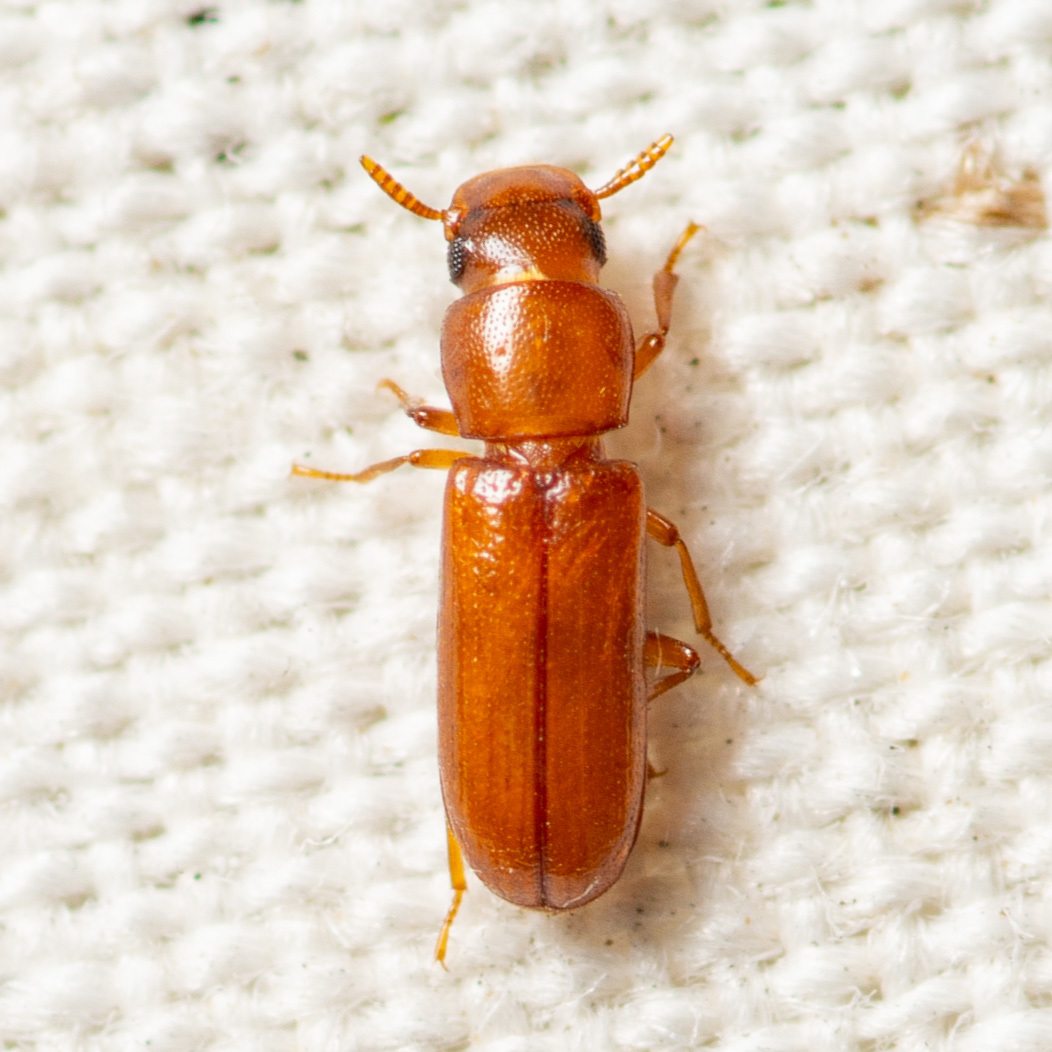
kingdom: Animalia
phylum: Arthropoda
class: Insecta
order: Coleoptera
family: Tenebrionidae
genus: Latheticus
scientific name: Latheticus oryzae
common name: Long-headed flour beetle
